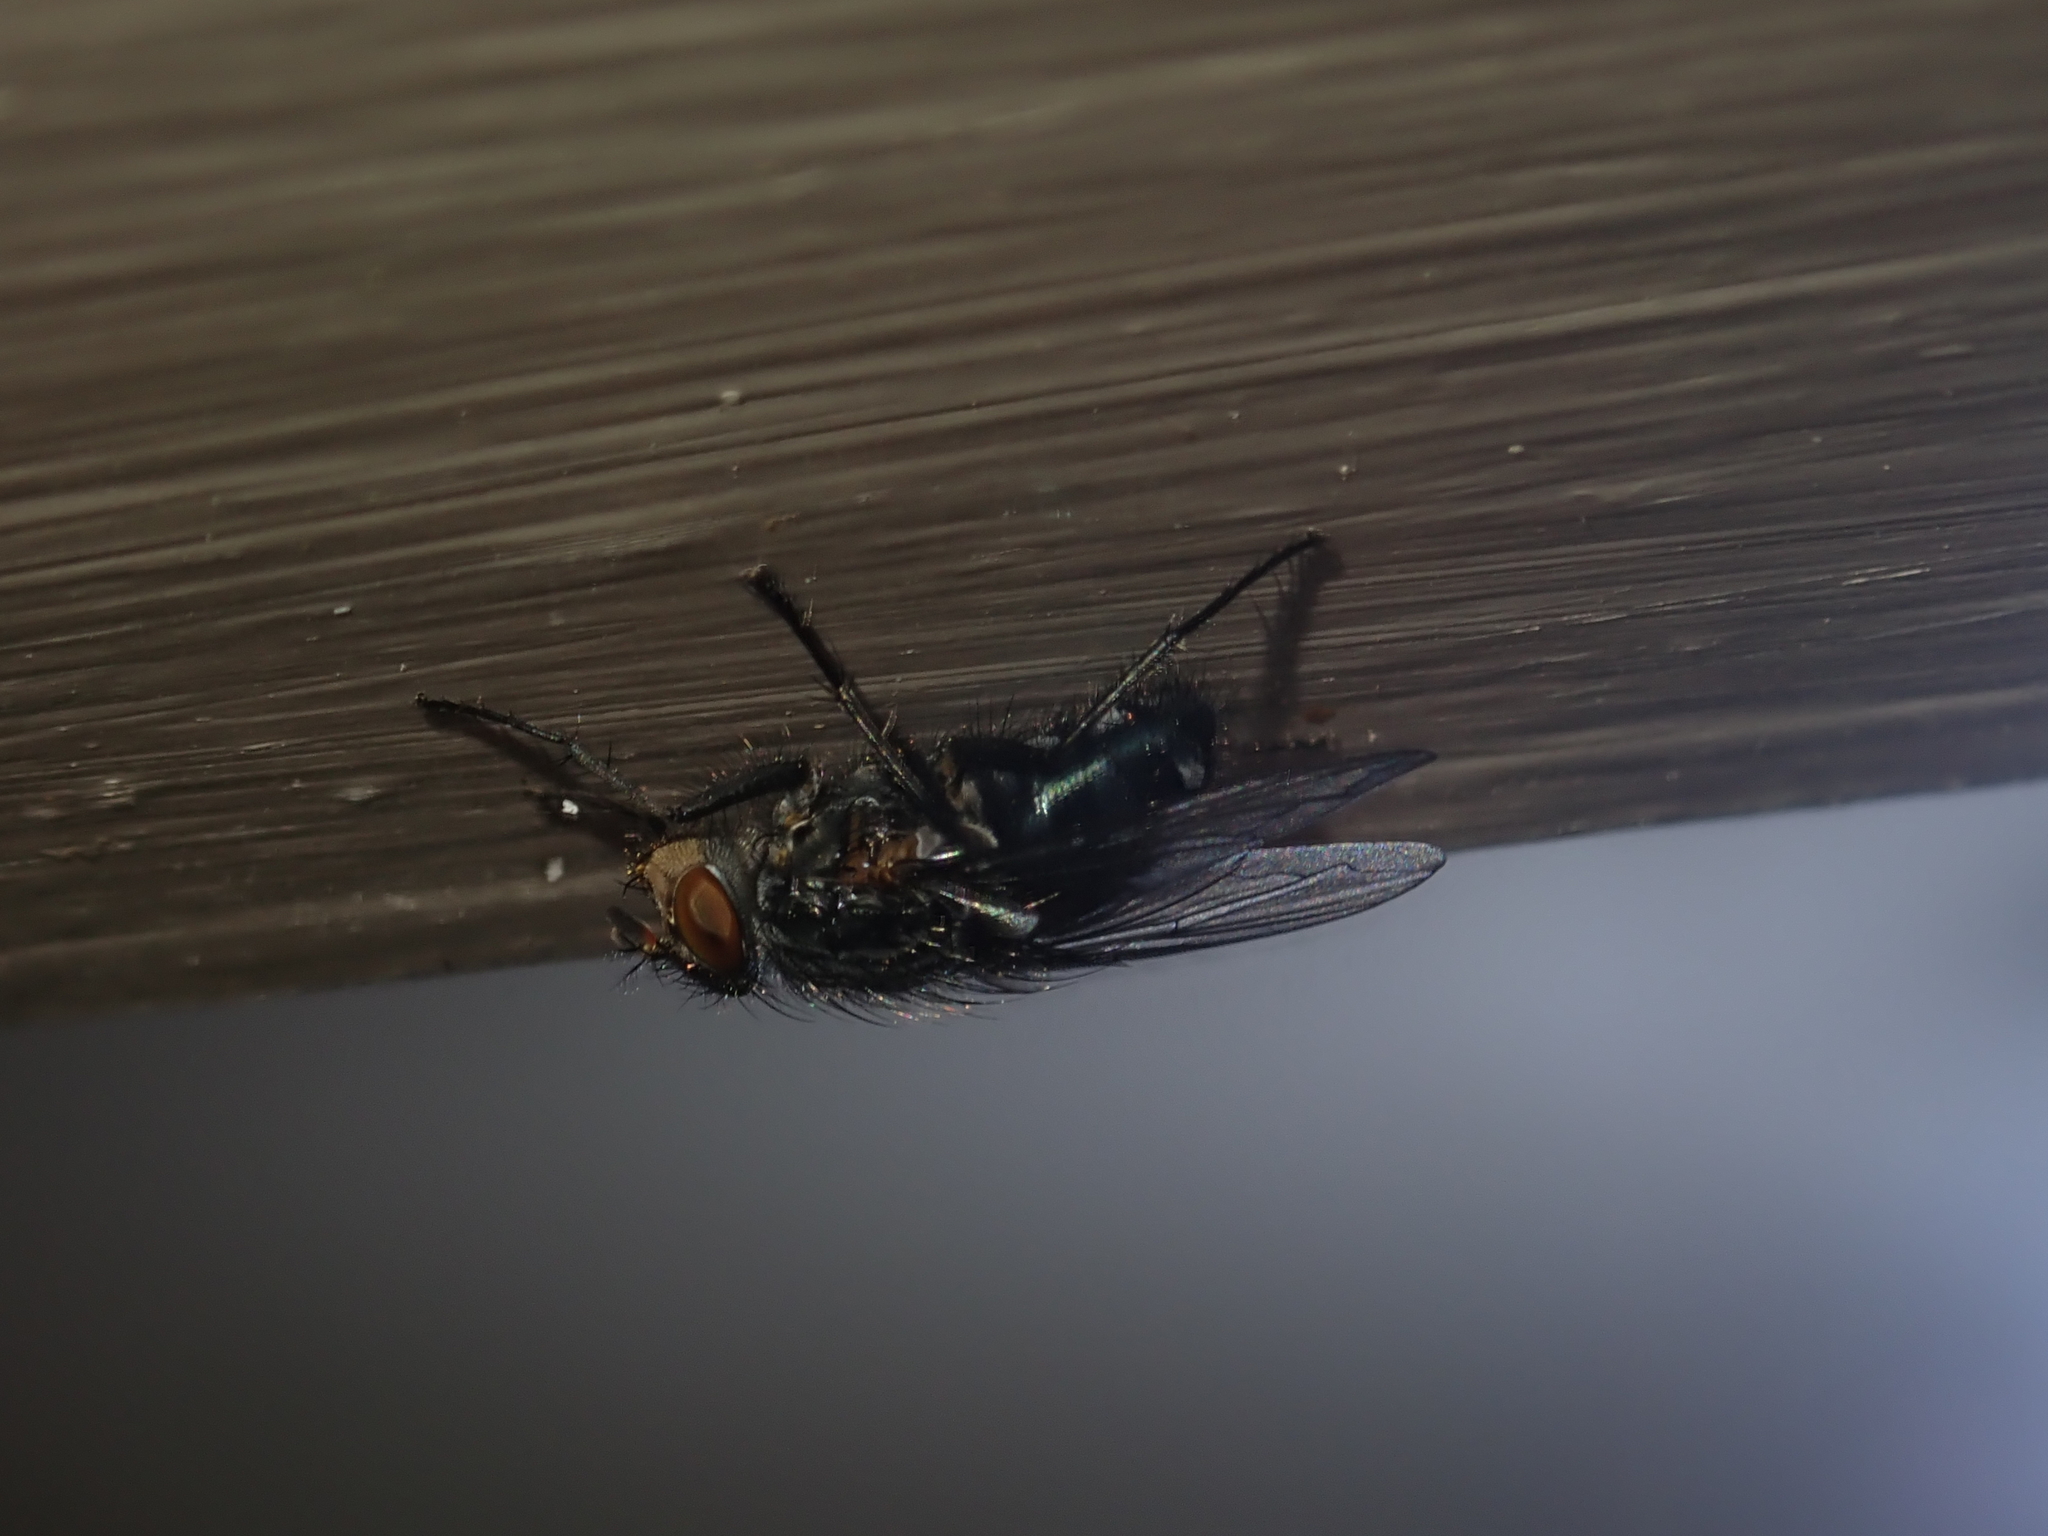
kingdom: Animalia
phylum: Arthropoda
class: Insecta
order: Diptera
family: Calliphoridae
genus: Calliphora
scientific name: Calliphora vicina
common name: Common blow flie
